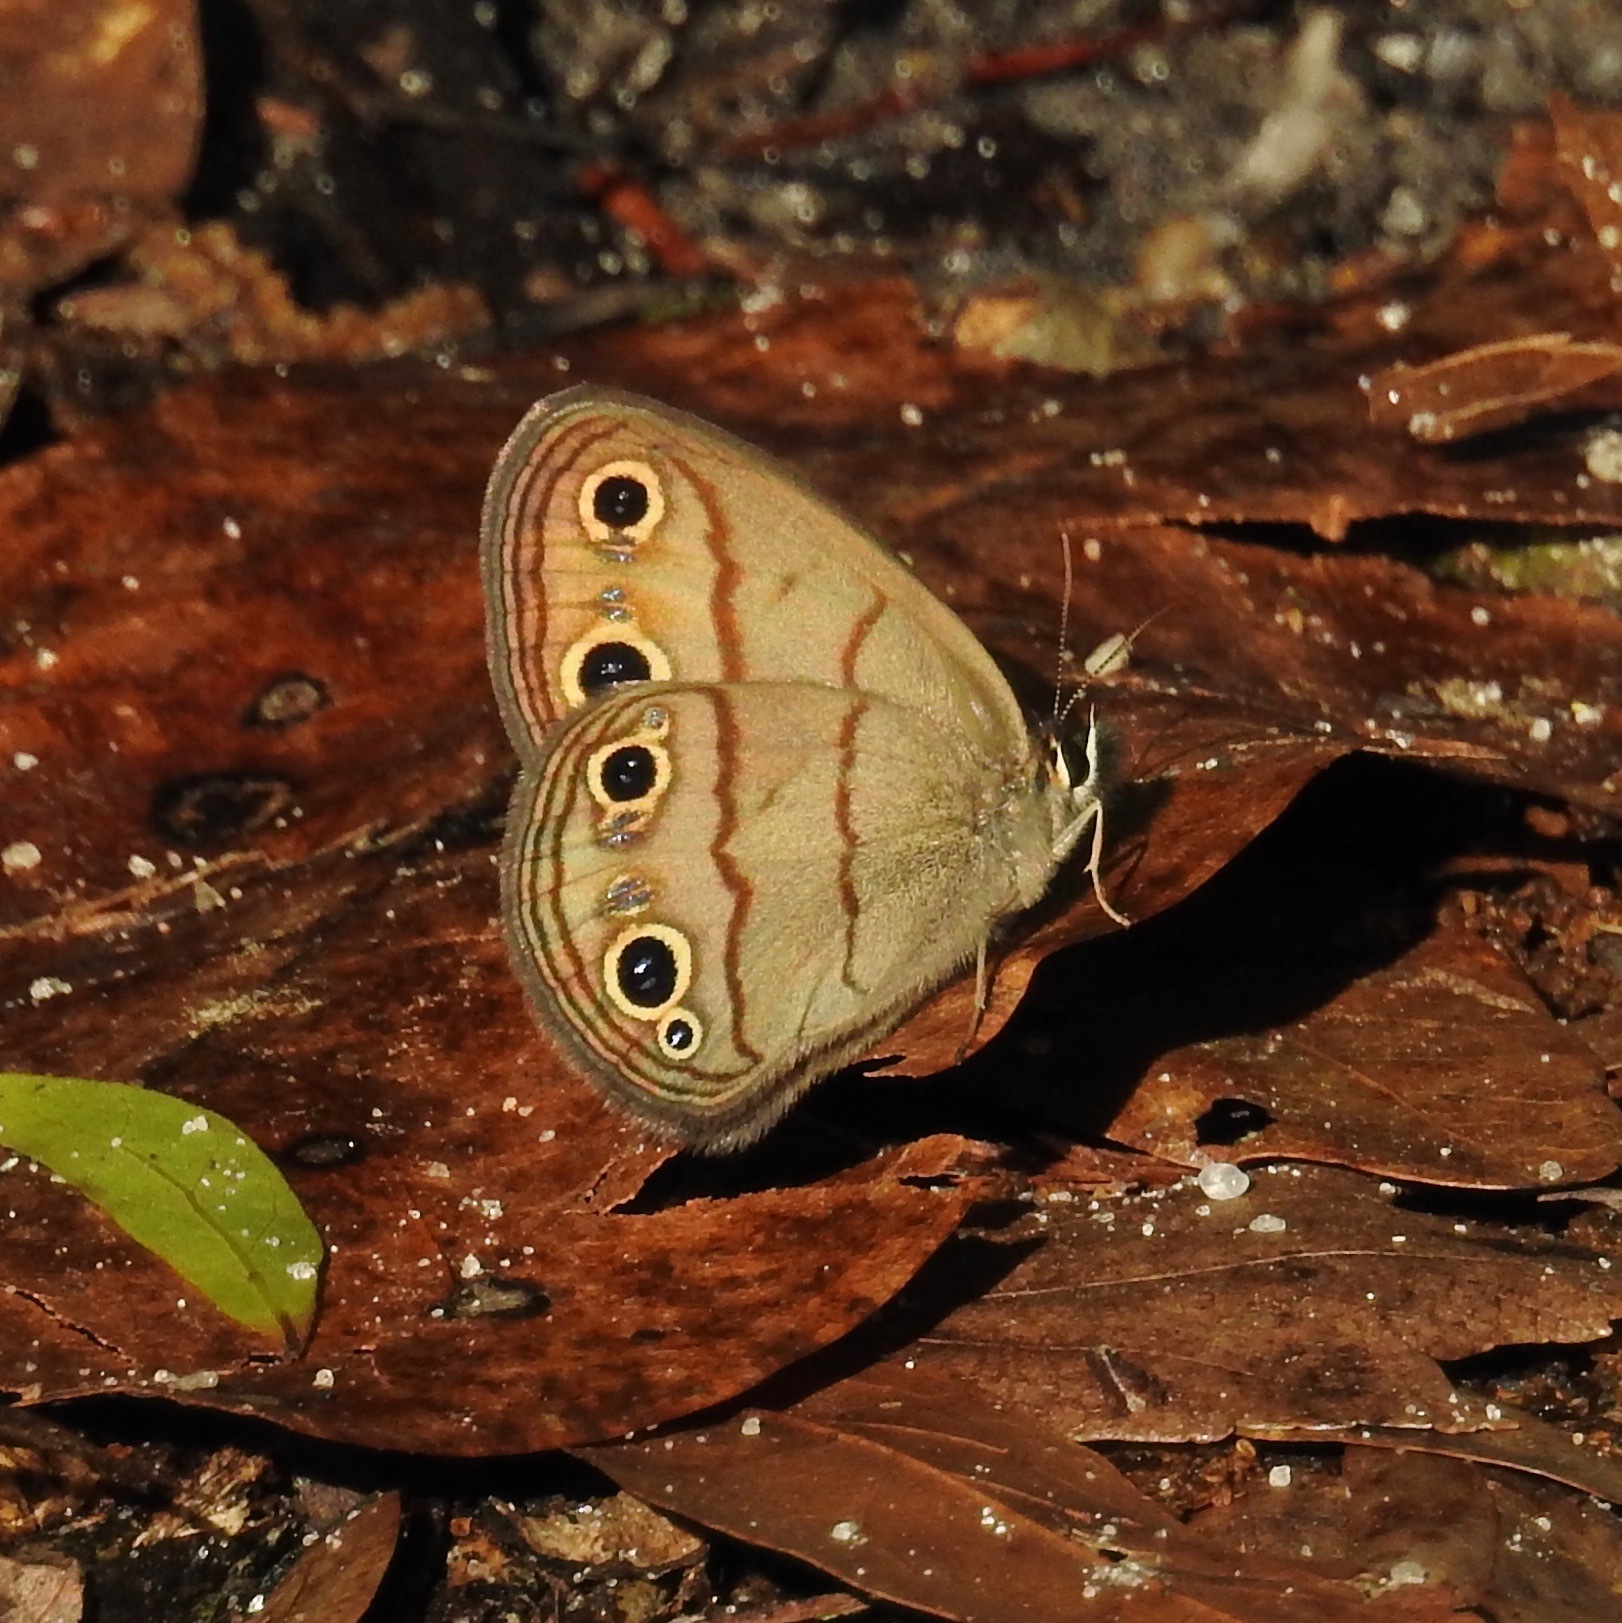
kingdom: Animalia
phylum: Arthropoda
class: Insecta
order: Lepidoptera
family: Nymphalidae
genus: Euptychia
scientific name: Euptychia cymela
